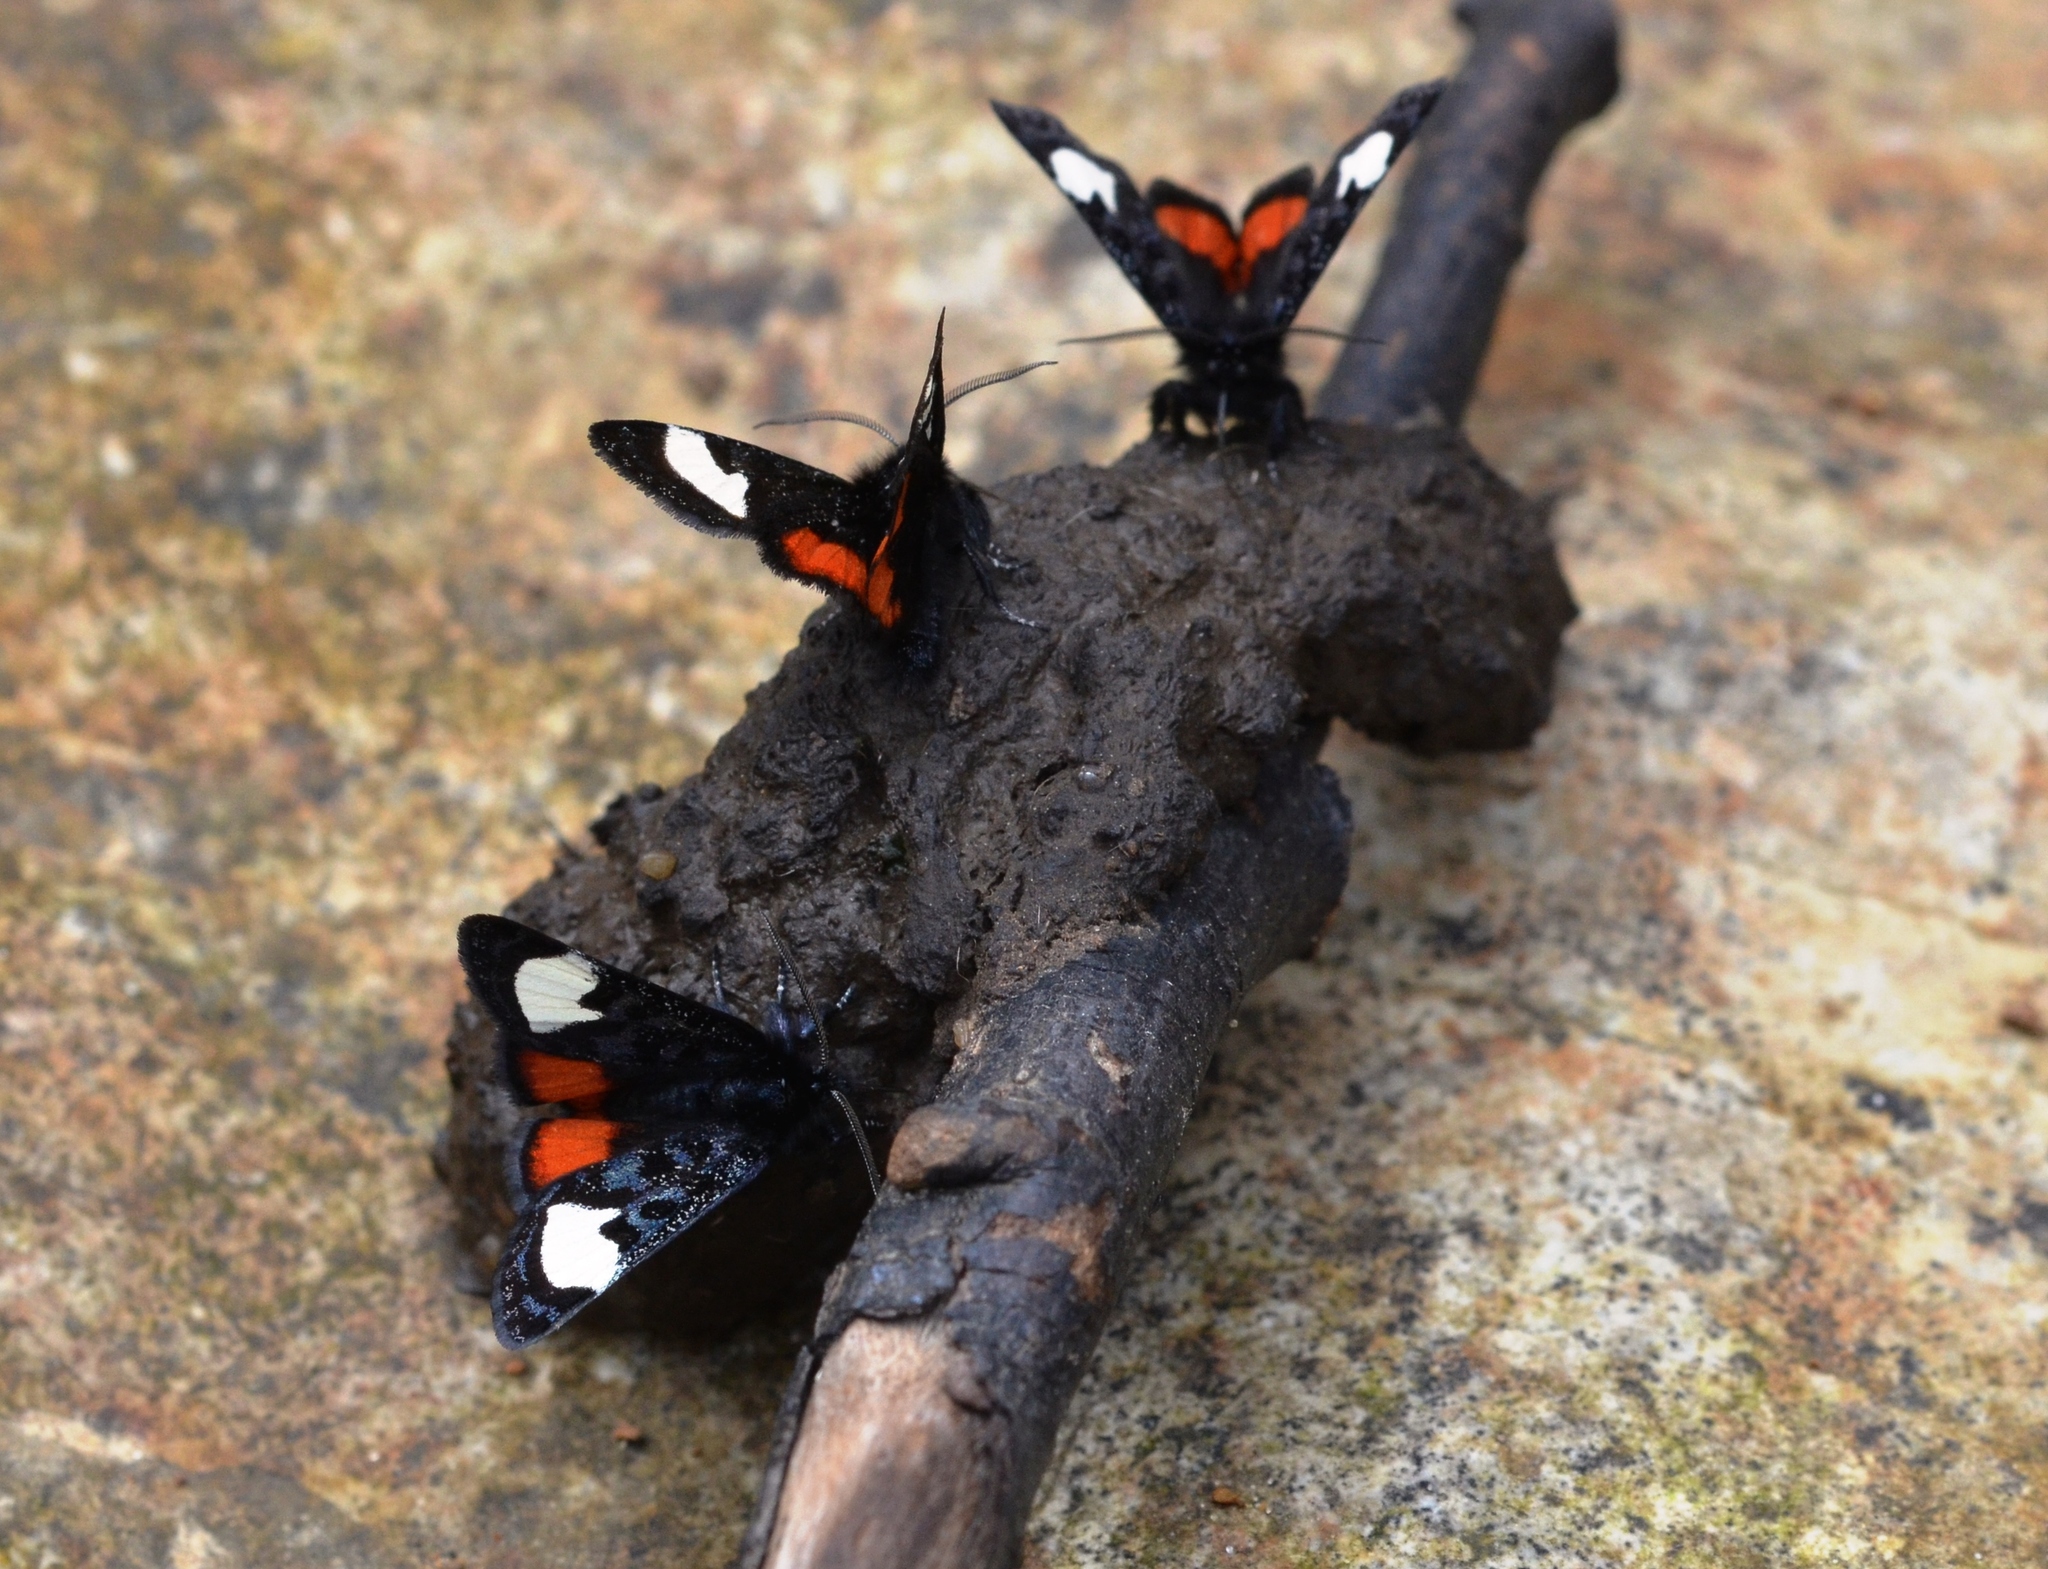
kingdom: Animalia
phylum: Arthropoda
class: Insecta
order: Lepidoptera
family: Noctuidae
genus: Psychomorpha
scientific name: Psychomorpha epimenis
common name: Grapevine epimenis moth
